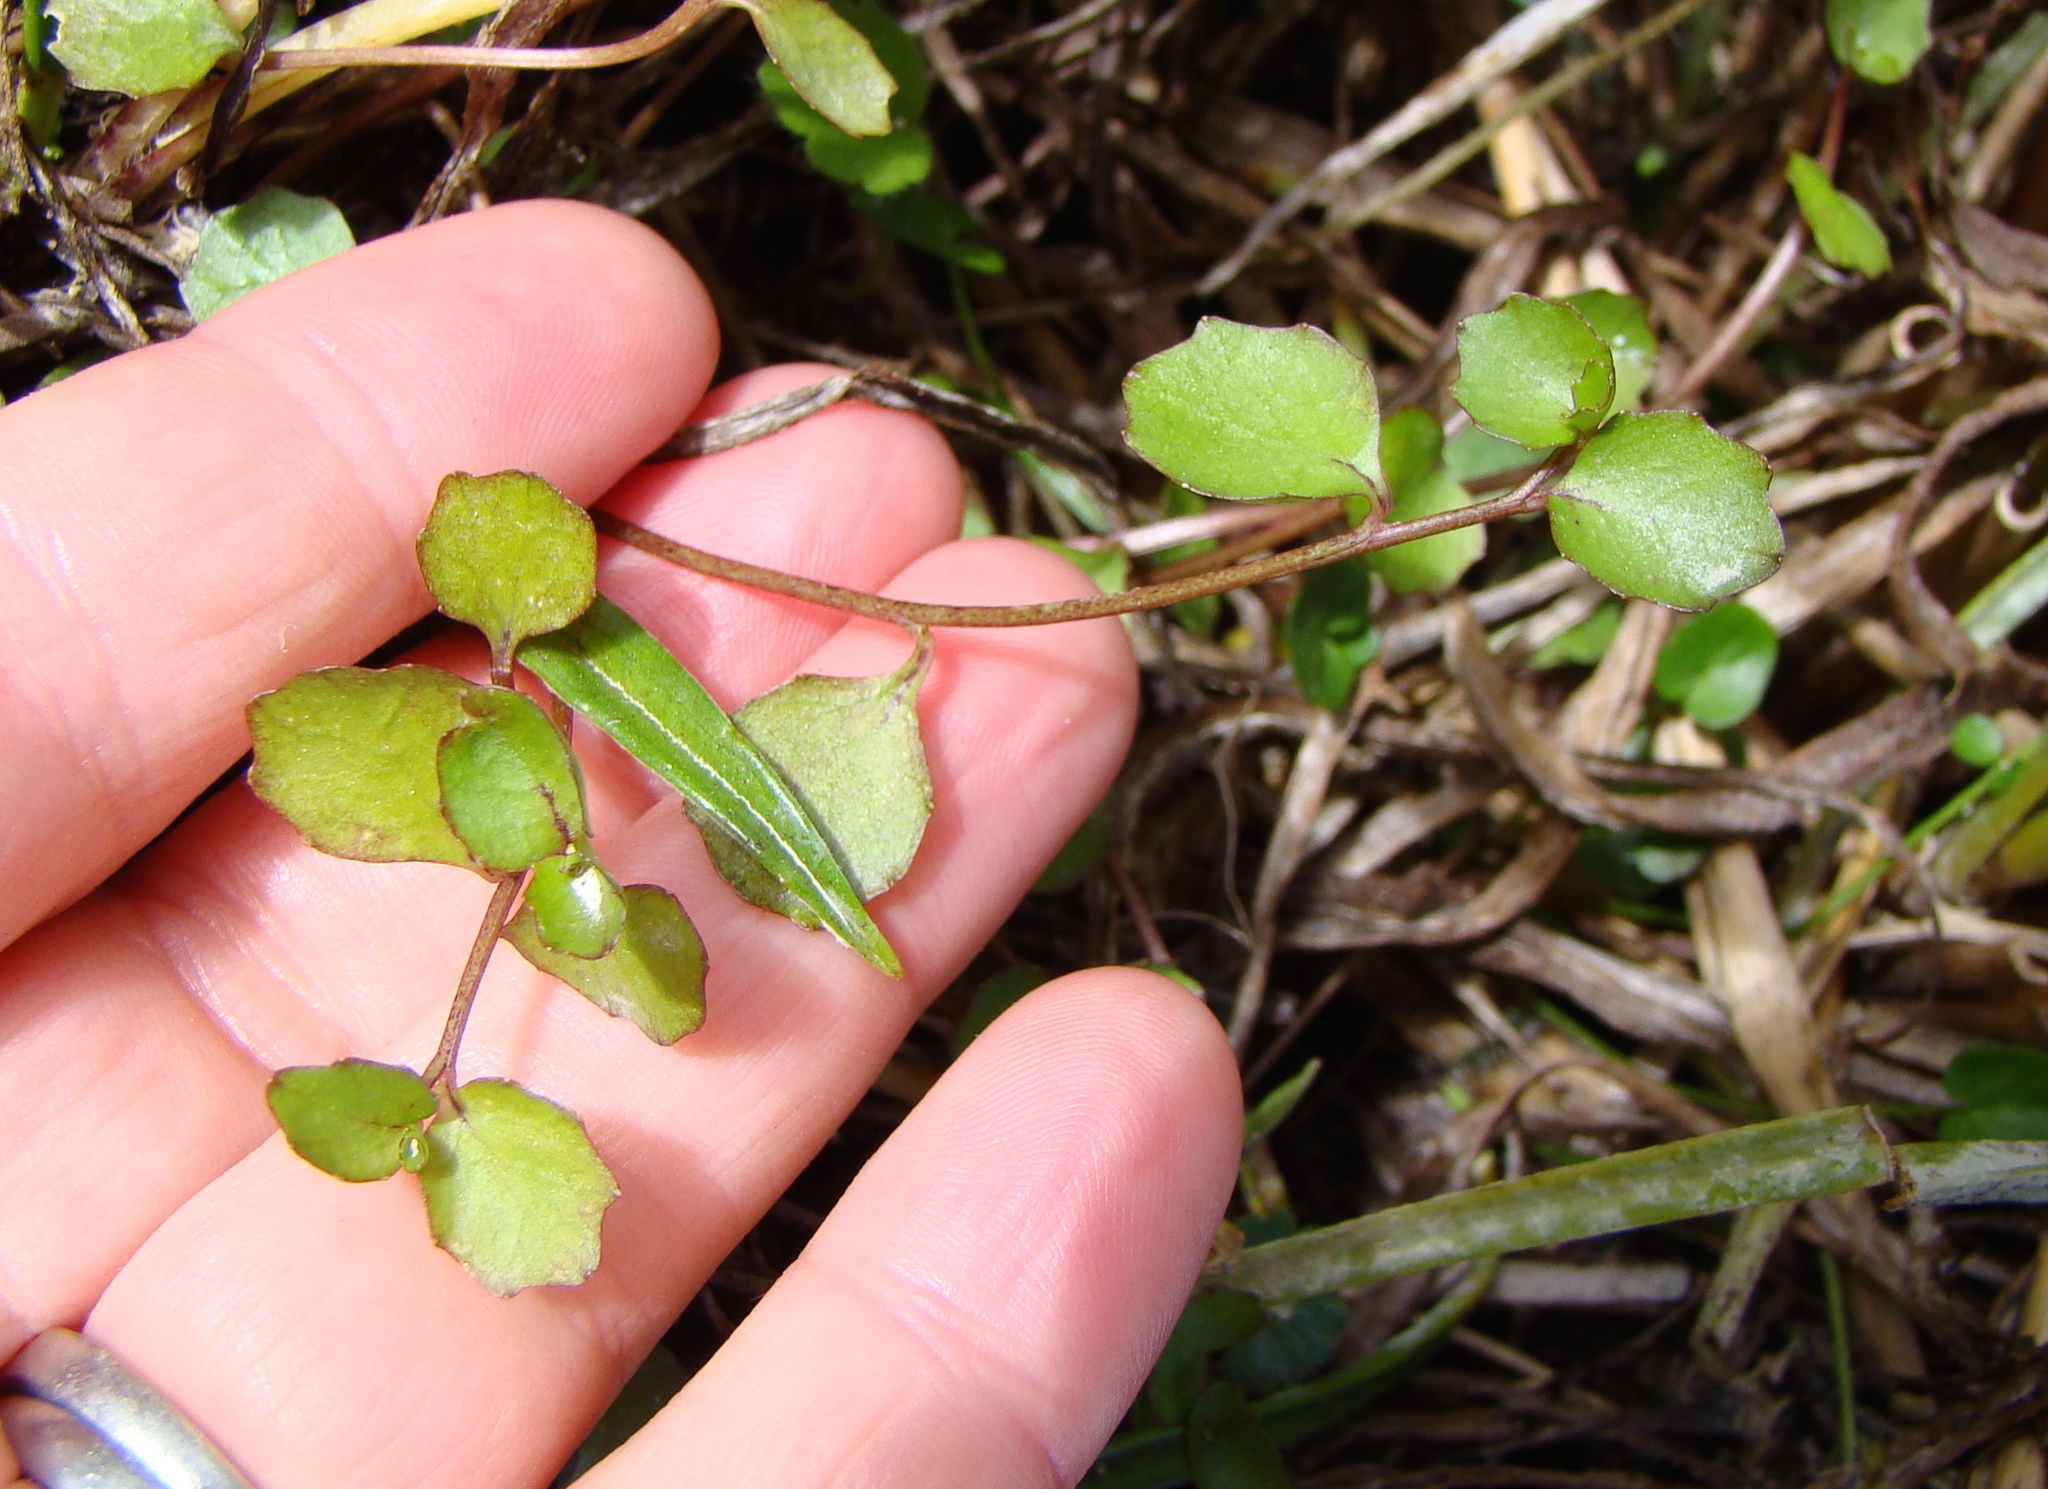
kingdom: Plantae
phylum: Tracheophyta
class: Magnoliopsida
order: Asterales
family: Campanulaceae
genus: Lobelia
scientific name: Lobelia angulata
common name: Lawn lobelia
